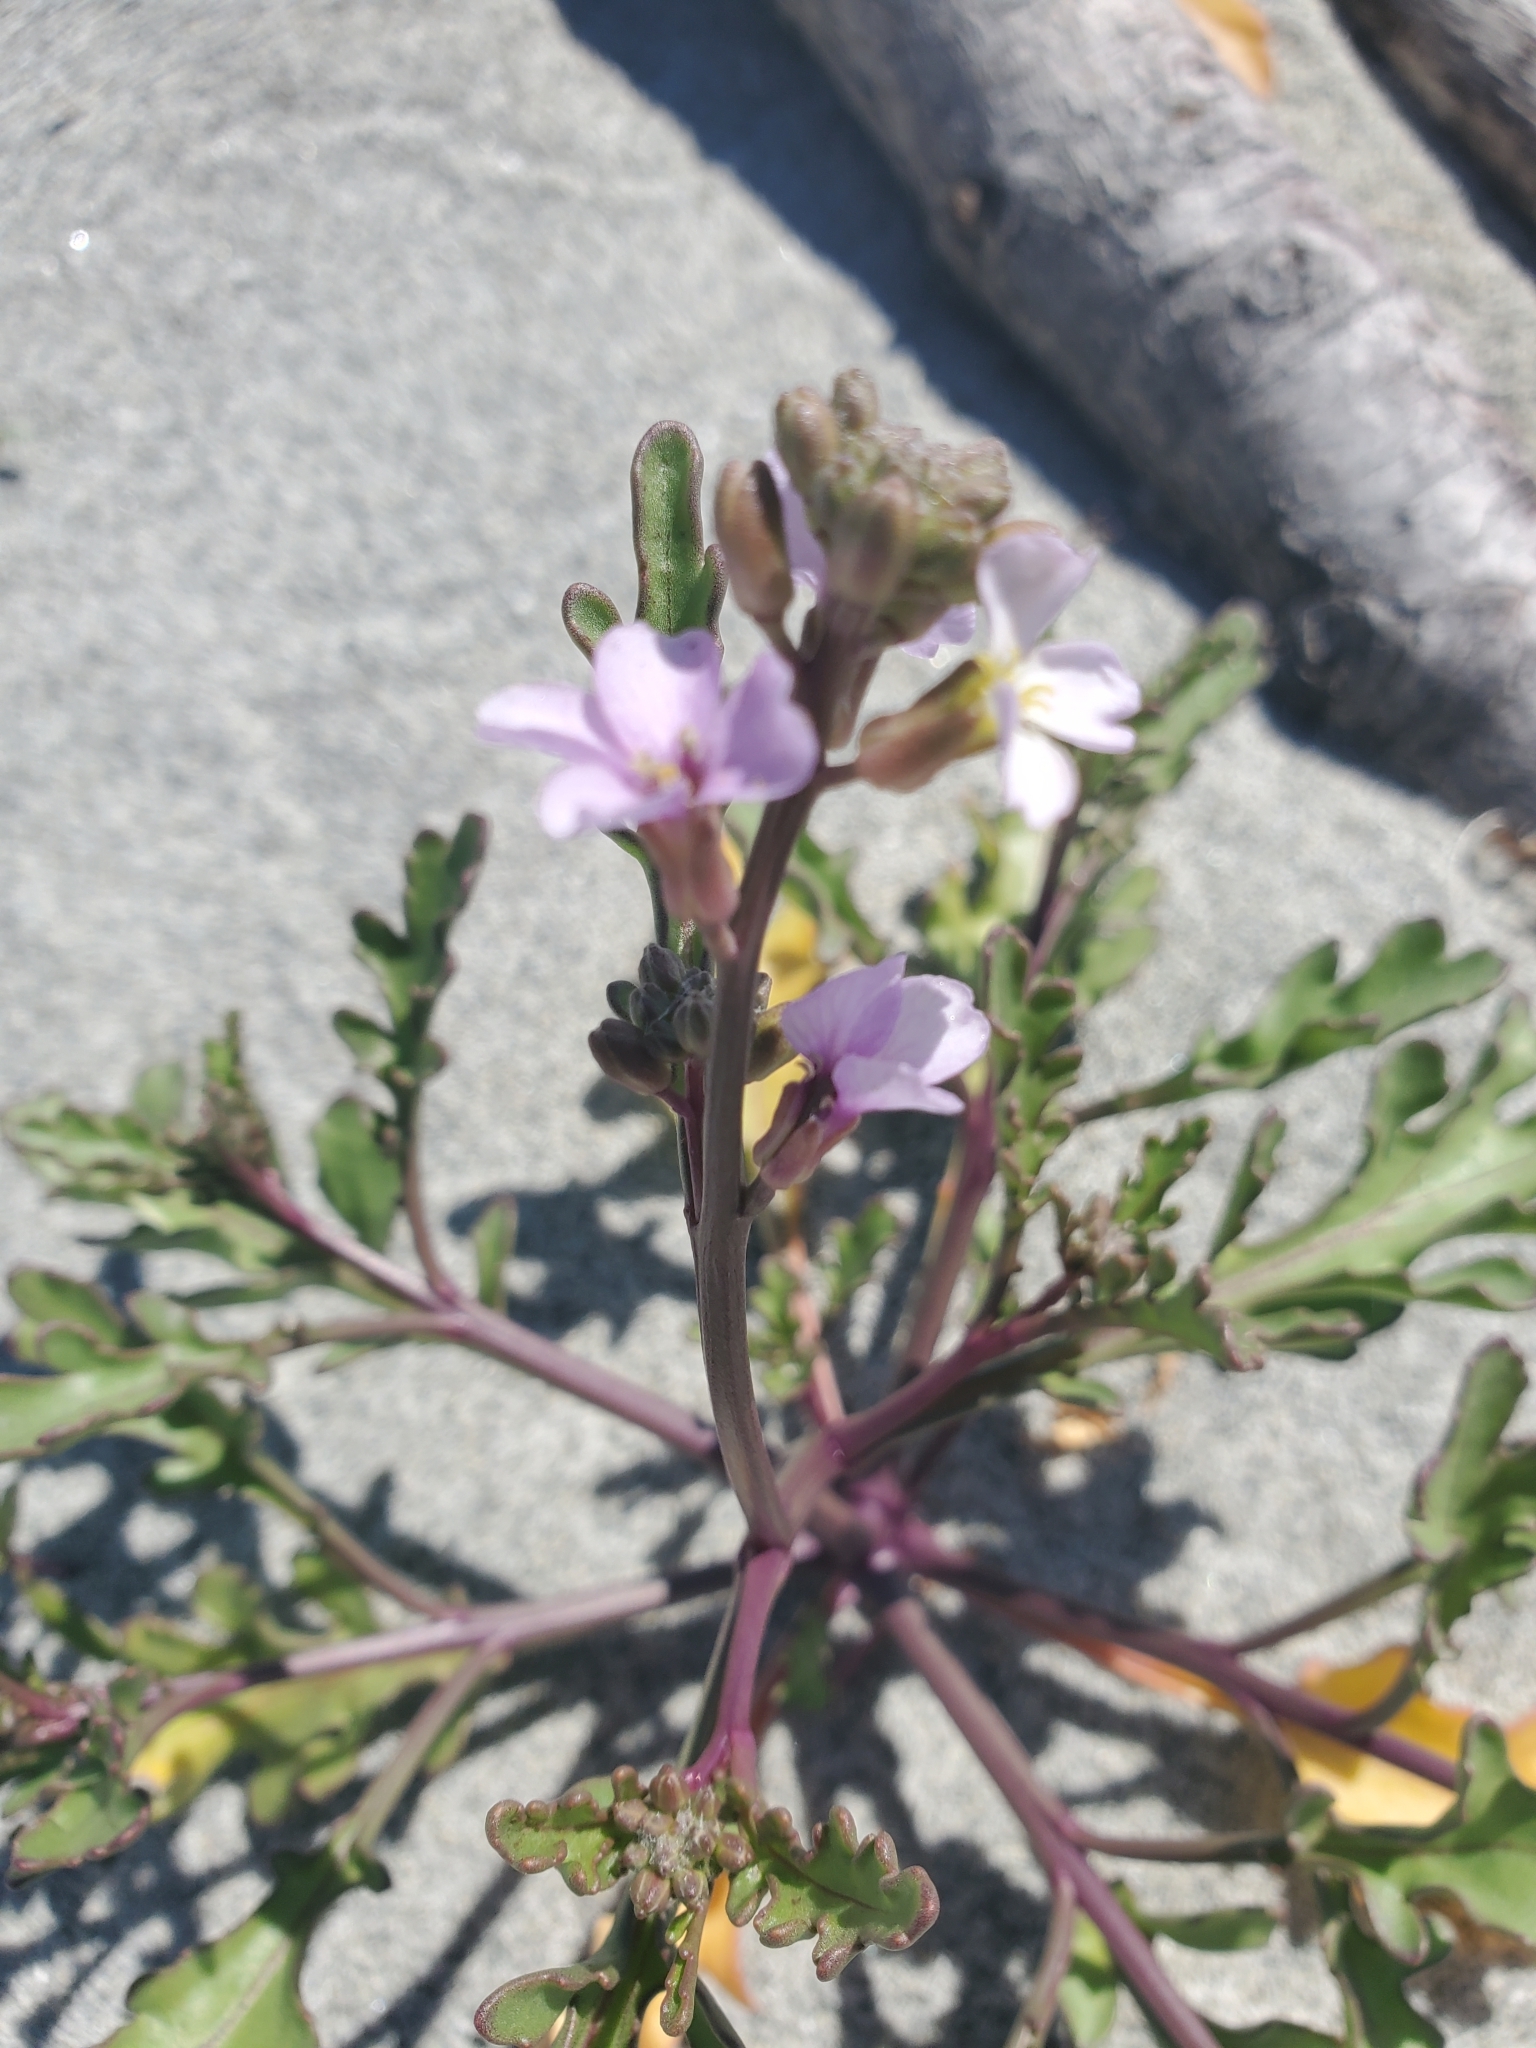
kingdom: Plantae
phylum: Tracheophyta
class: Magnoliopsida
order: Brassicales
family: Brassicaceae
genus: Cakile
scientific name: Cakile maritima
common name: Sea rocket
